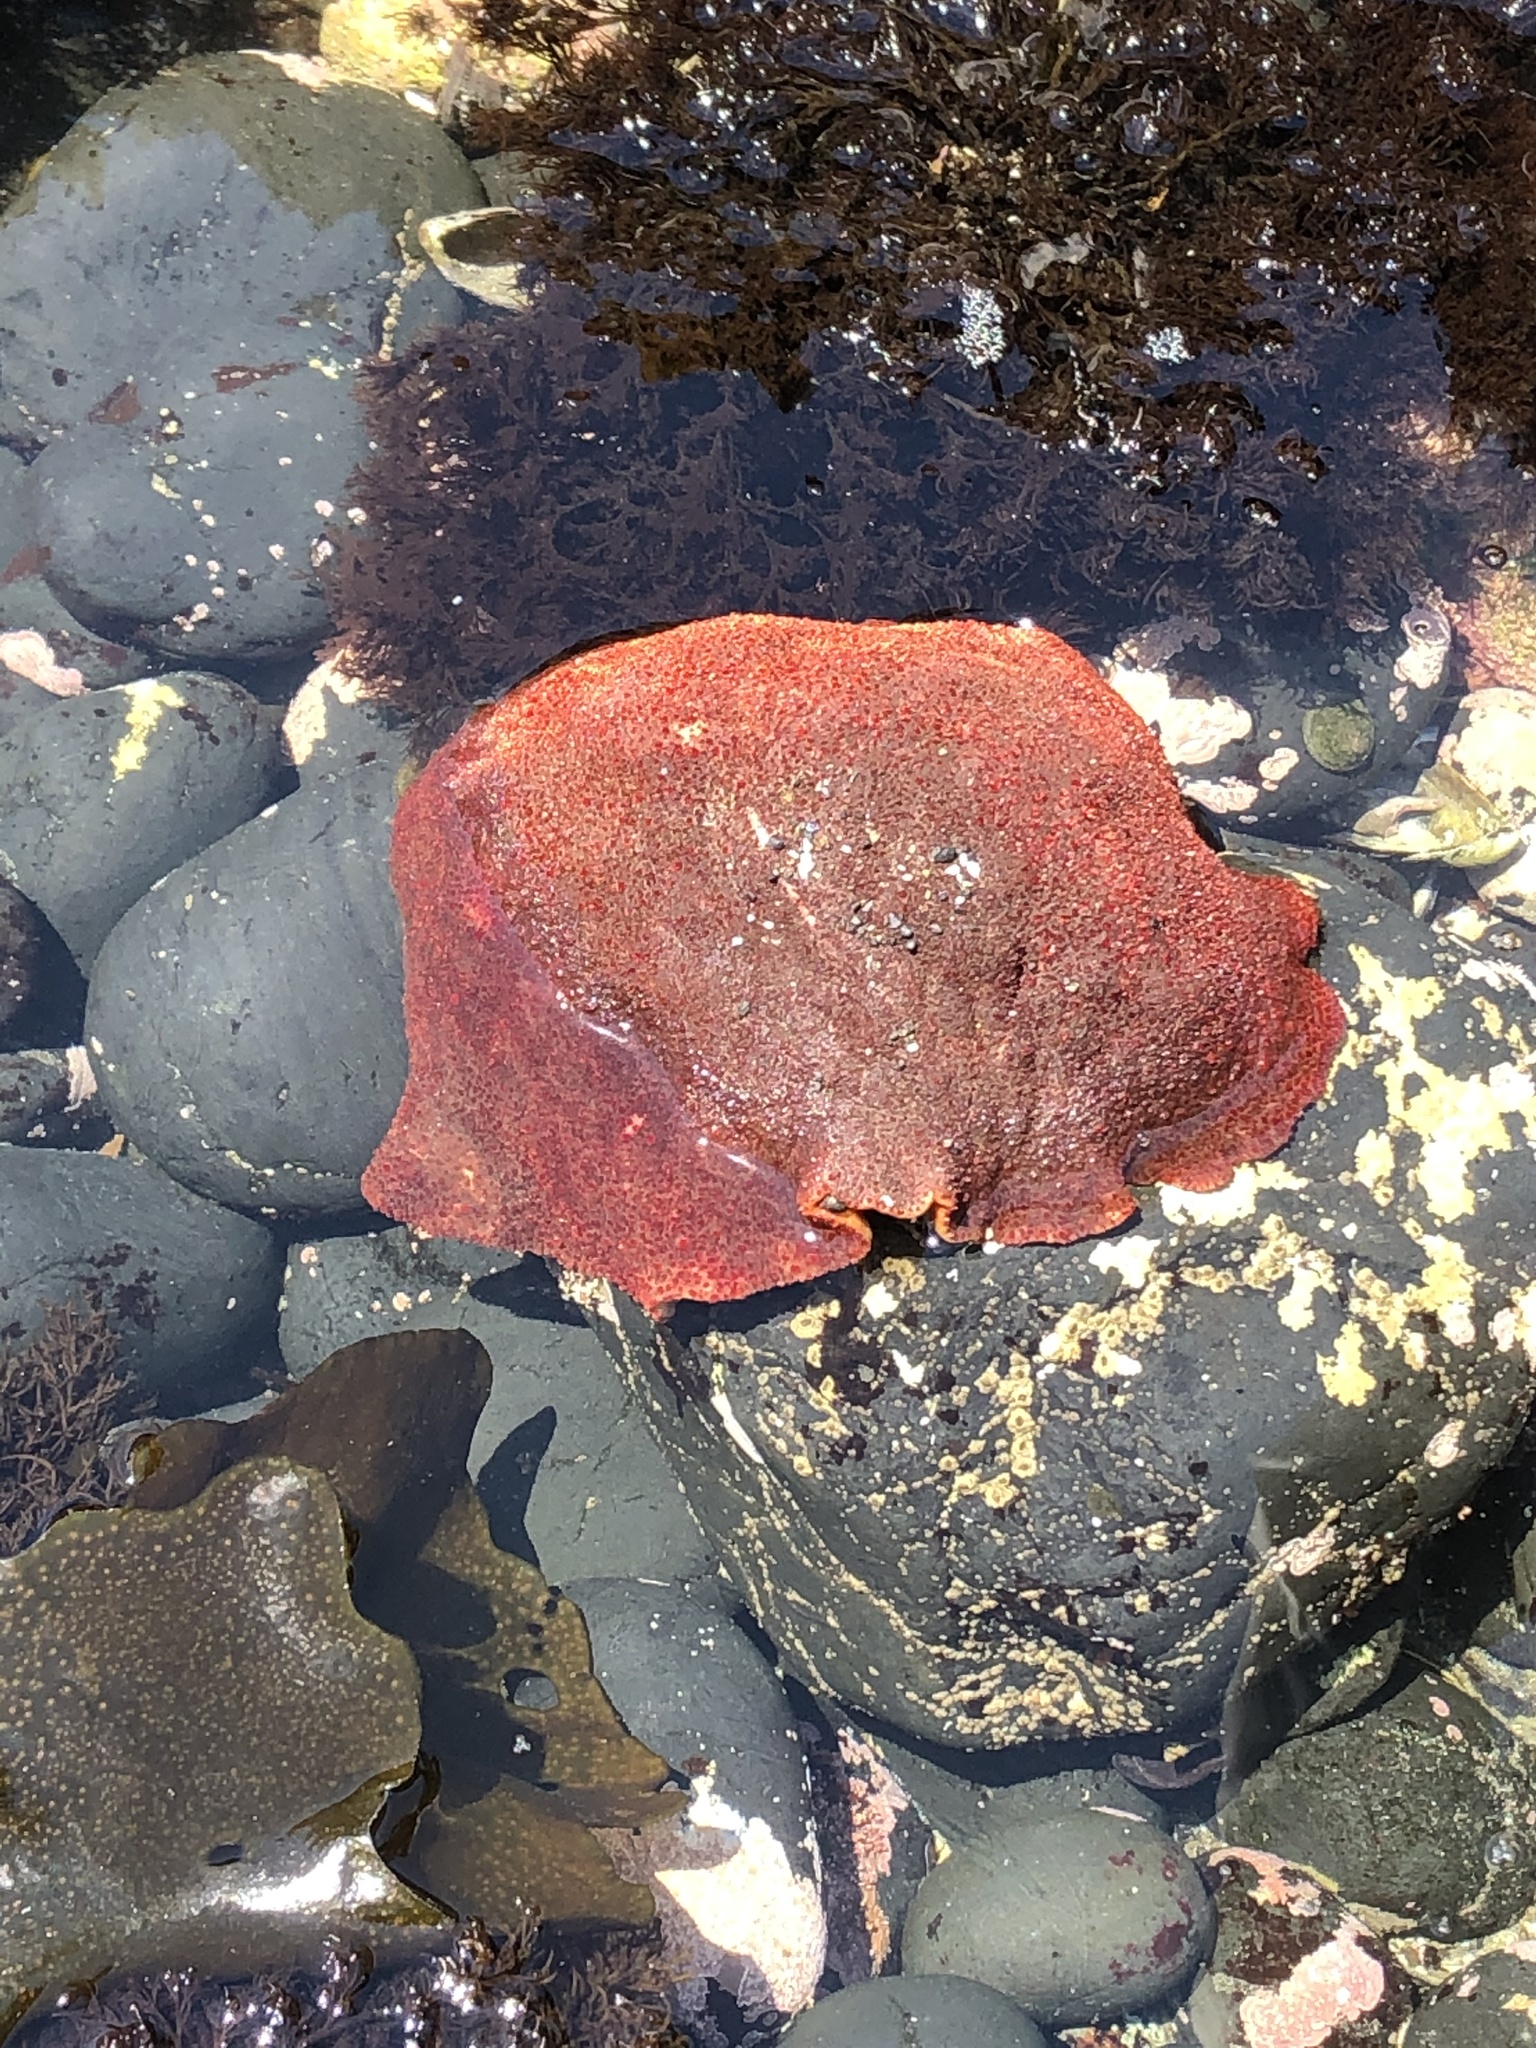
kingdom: Animalia
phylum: Mollusca
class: Polyplacophora
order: Chitonida
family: Acanthochitonidae
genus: Cryptochiton
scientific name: Cryptochiton stelleri
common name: Giant pacific chiton
